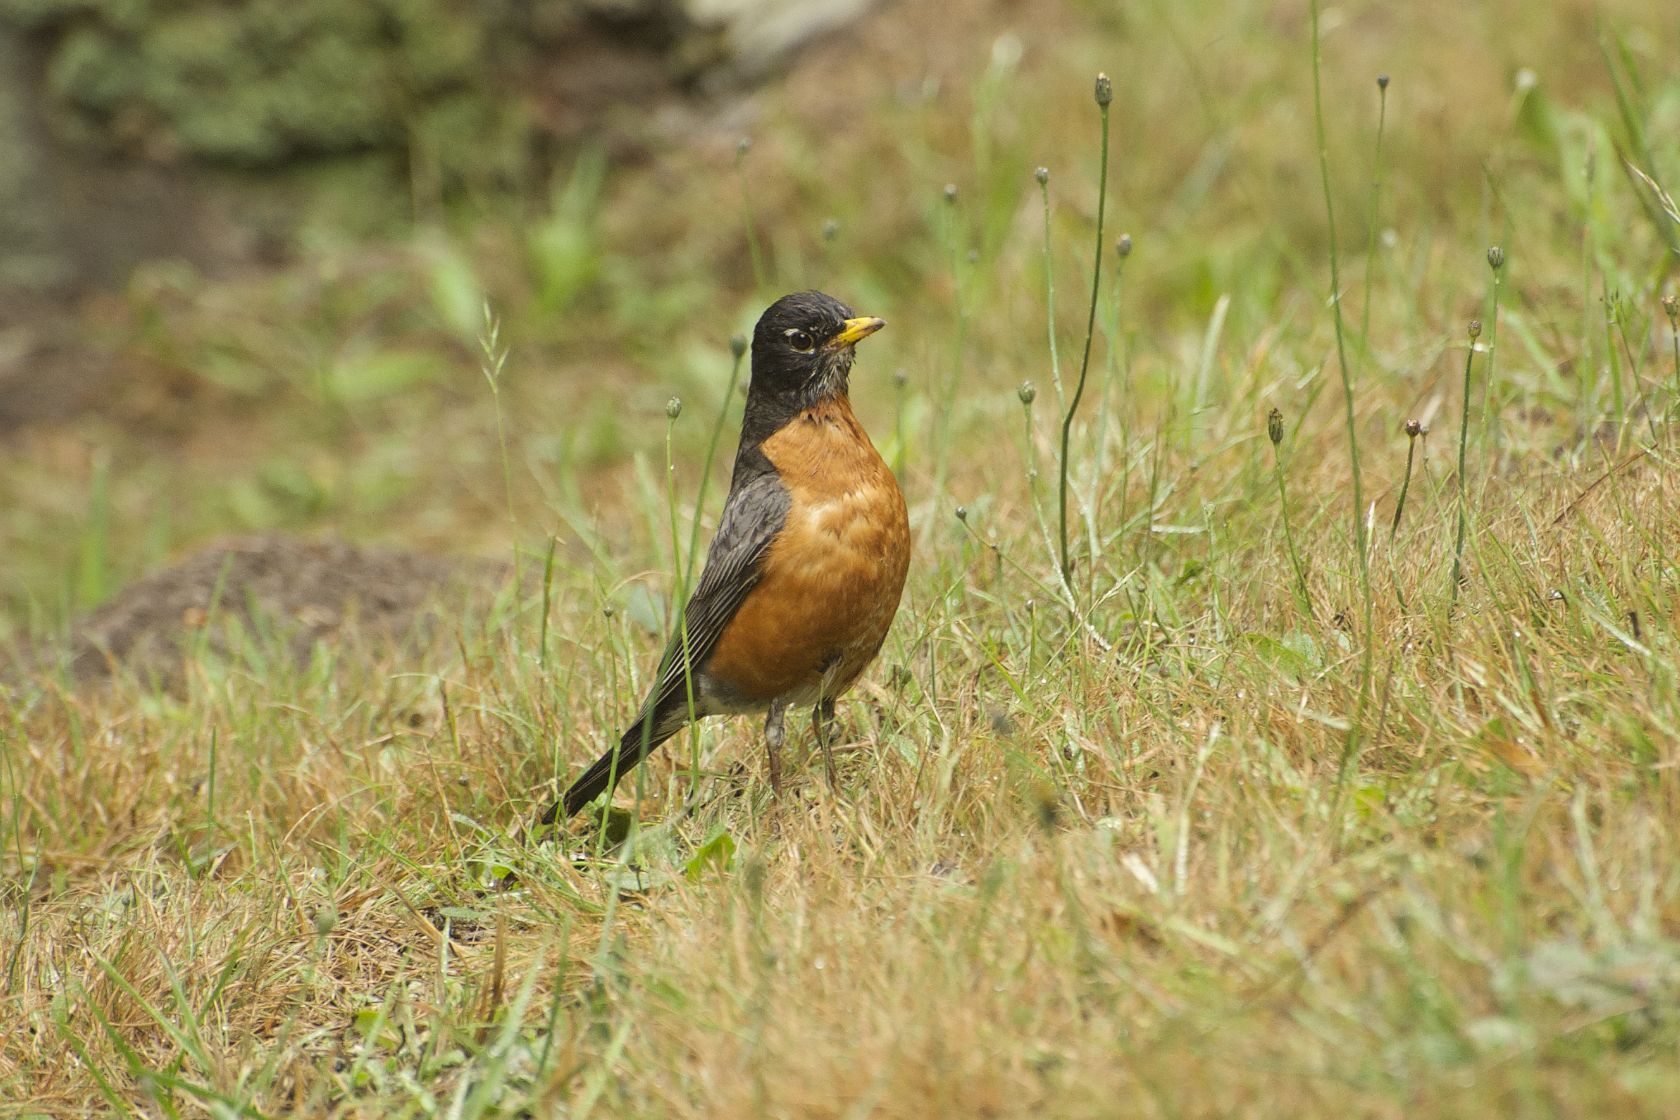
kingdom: Animalia
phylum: Chordata
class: Aves
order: Passeriformes
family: Turdidae
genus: Turdus
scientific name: Turdus migratorius
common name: American robin
